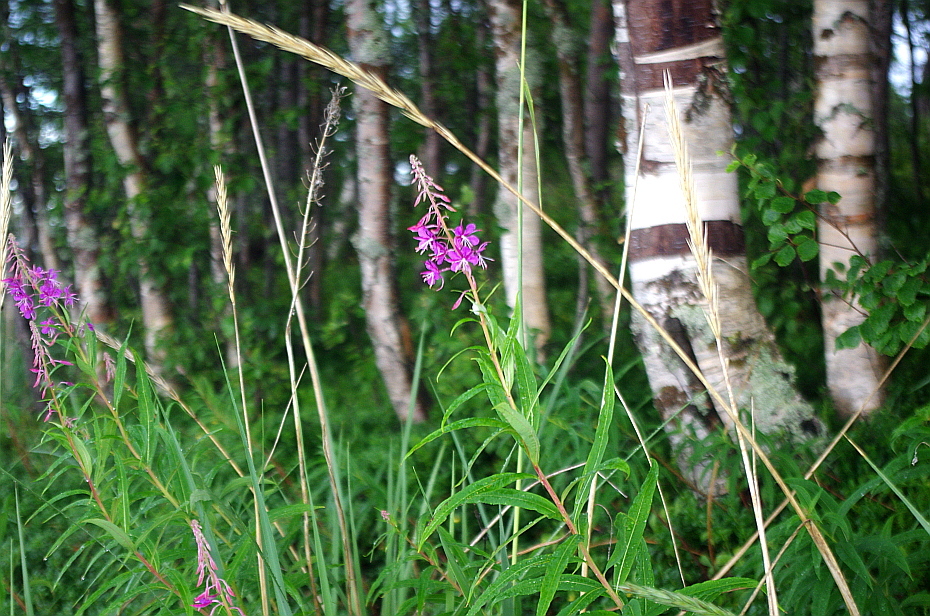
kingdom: Plantae
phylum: Tracheophyta
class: Magnoliopsida
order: Myrtales
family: Onagraceae
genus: Chamaenerion
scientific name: Chamaenerion angustifolium
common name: Fireweed
